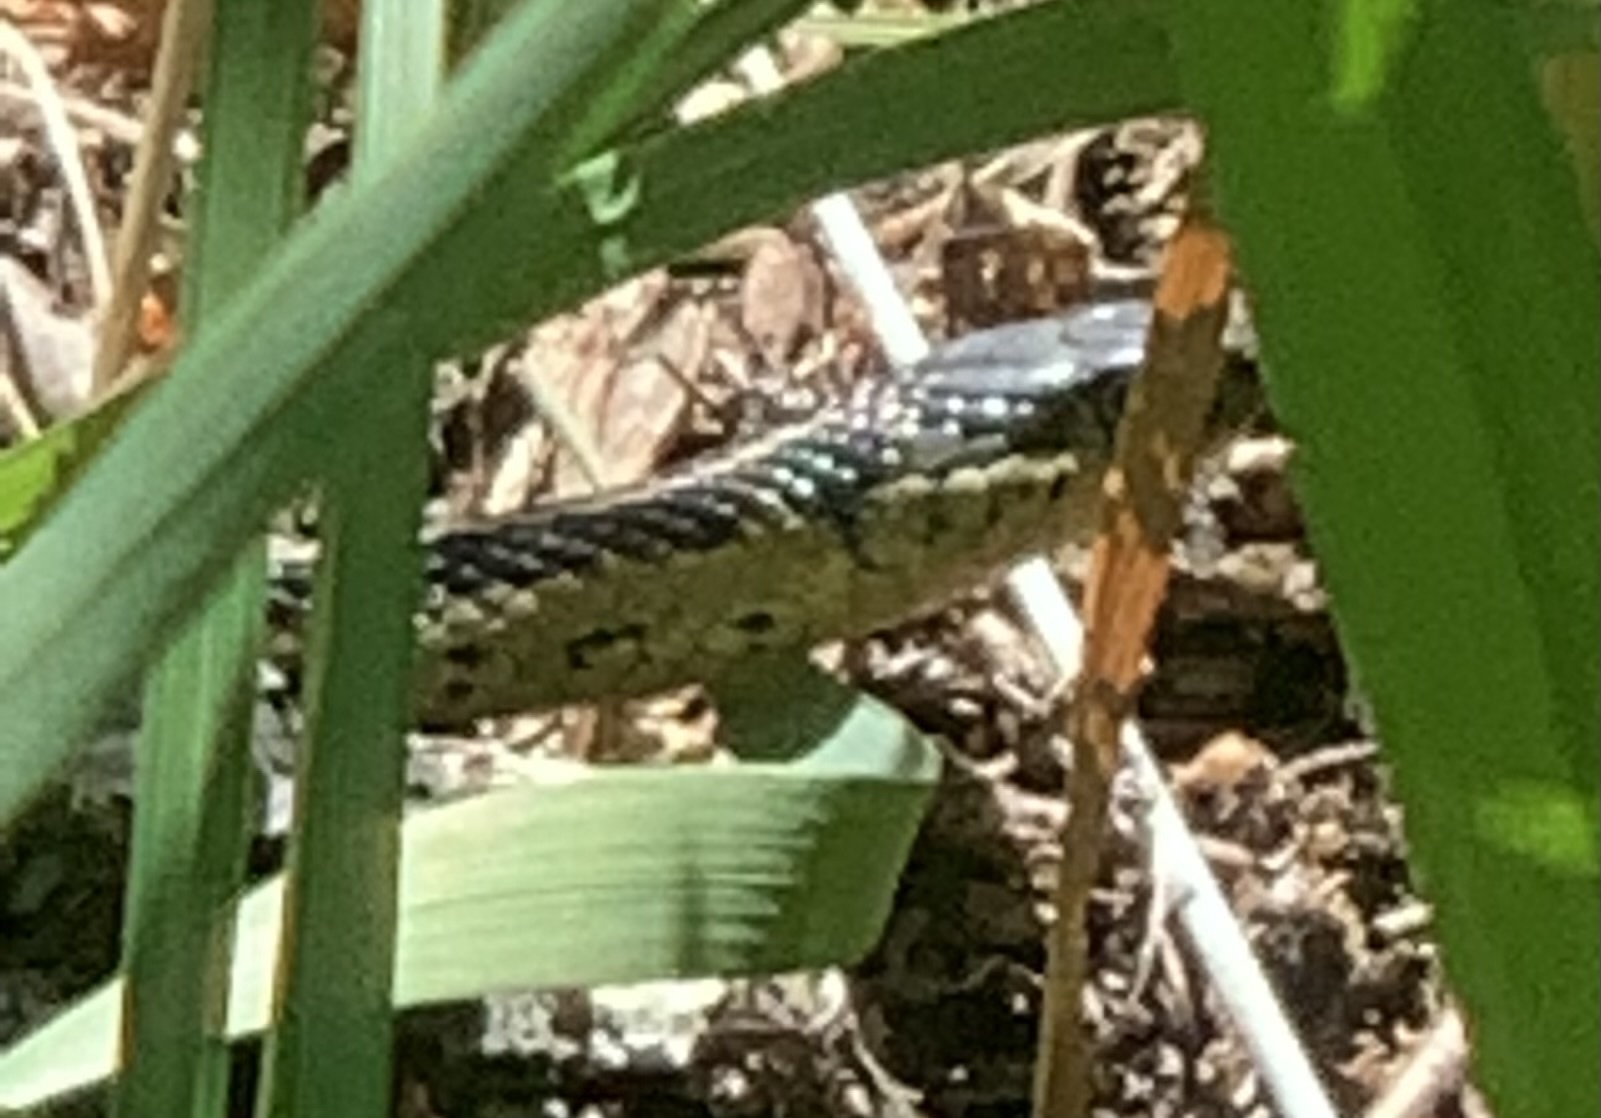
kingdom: Animalia
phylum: Chordata
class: Squamata
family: Colubridae
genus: Thamnophis
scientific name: Thamnophis sirtalis
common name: Common garter snake
